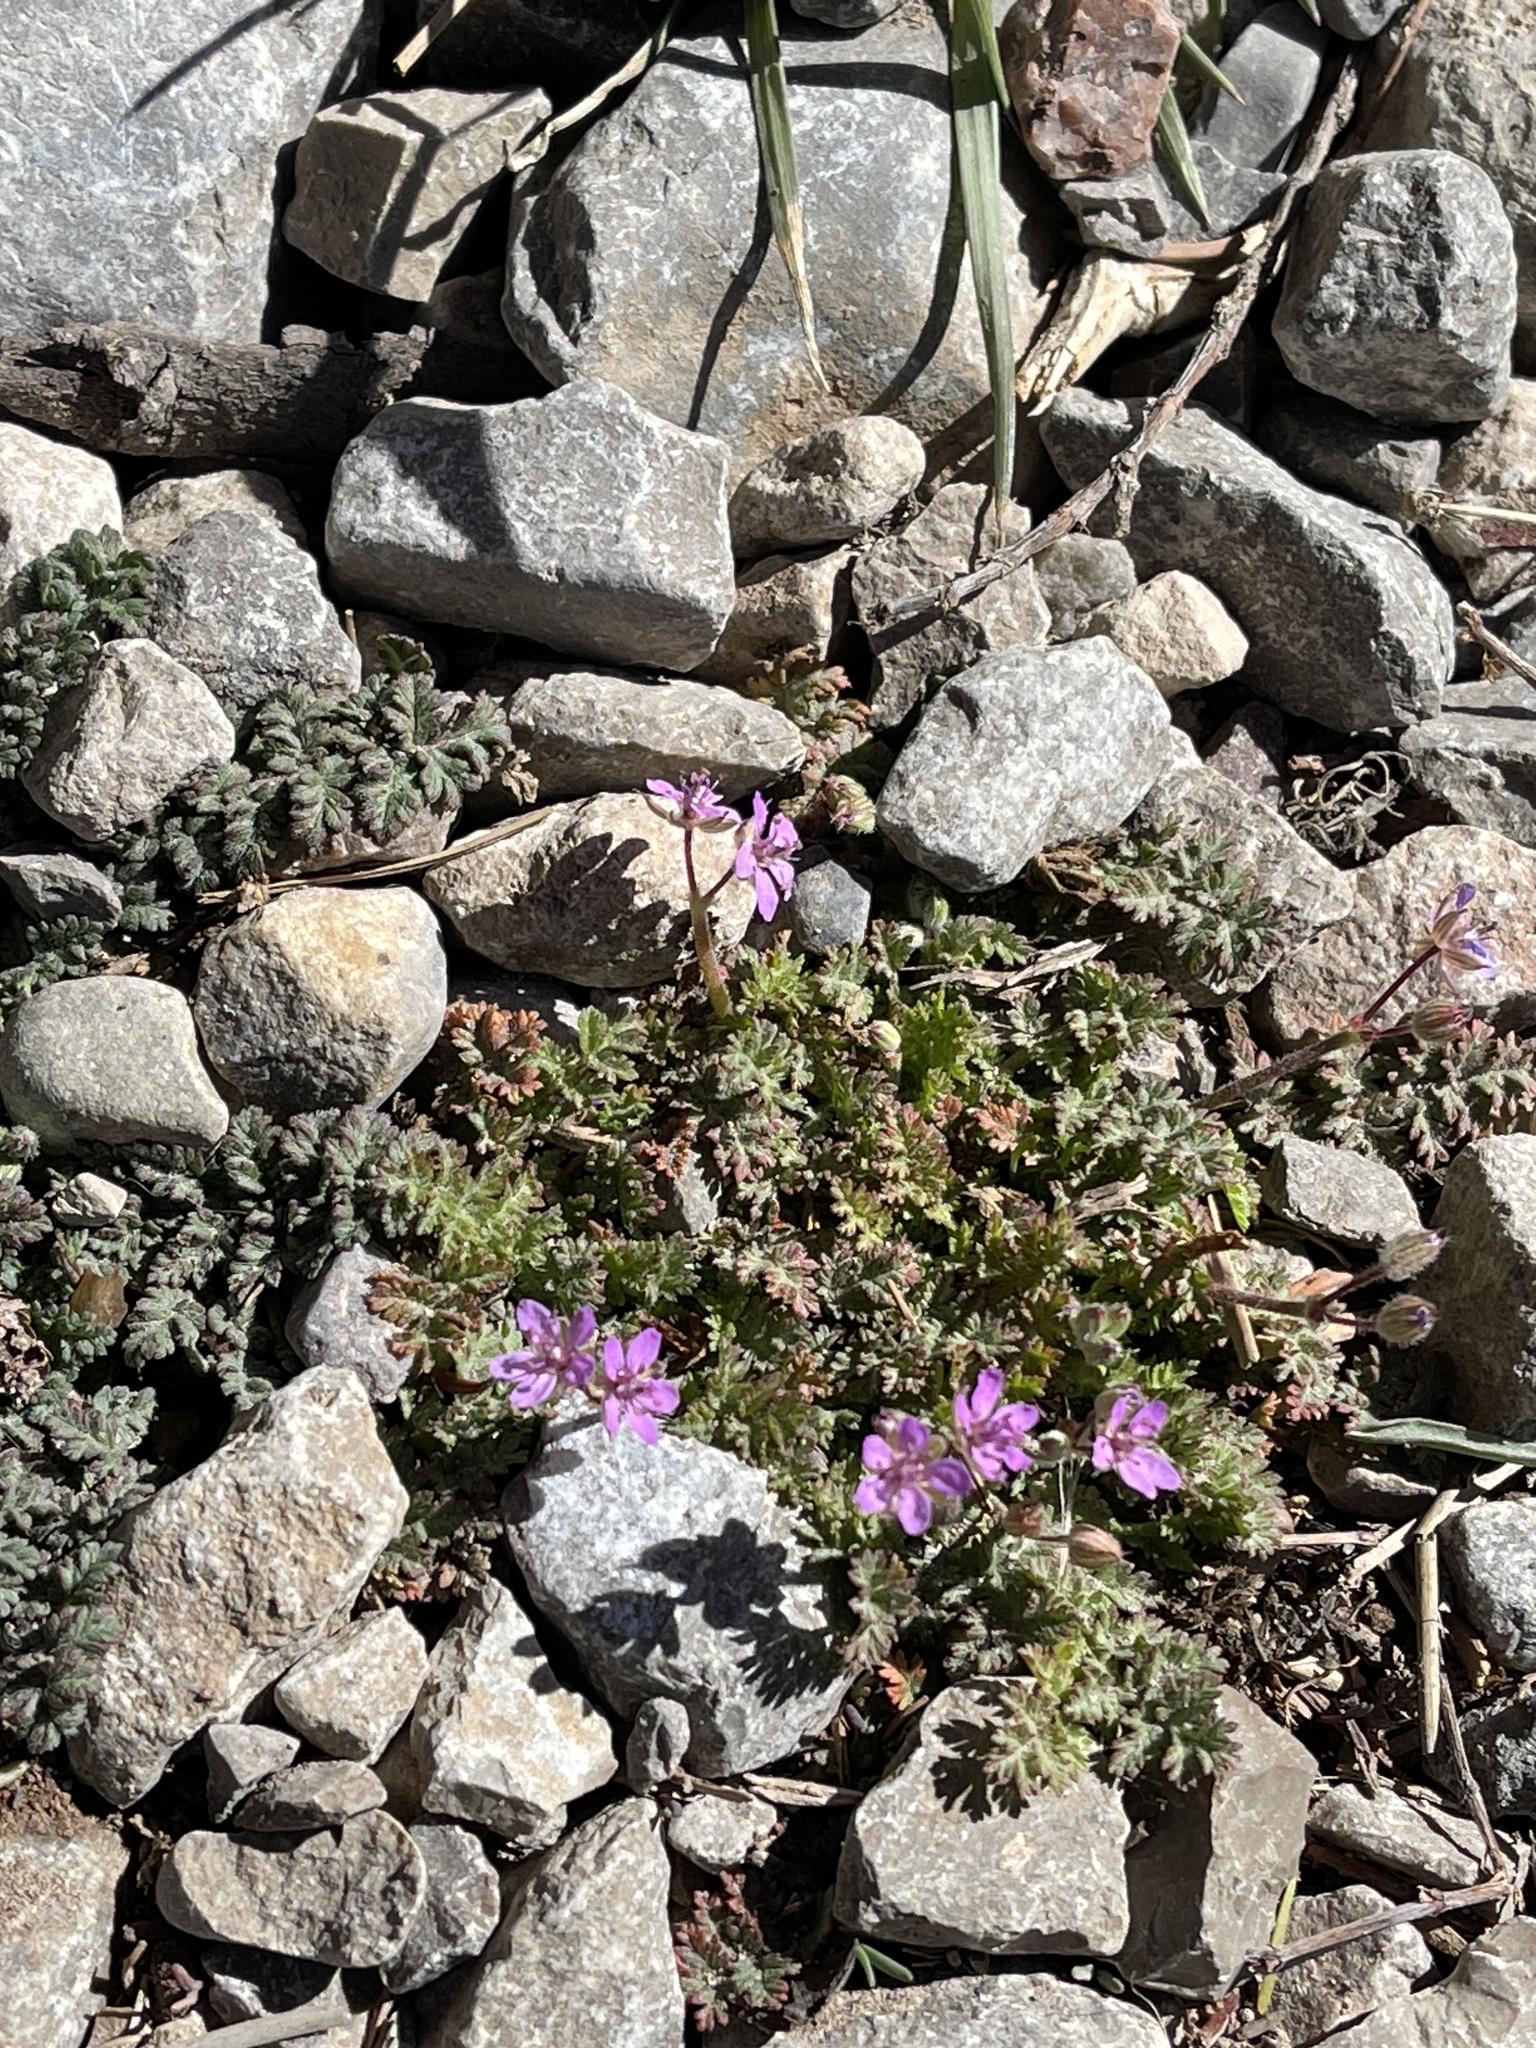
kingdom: Plantae
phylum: Tracheophyta
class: Magnoliopsida
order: Geraniales
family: Geraniaceae
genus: Erodium
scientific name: Erodium cicutarium
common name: Common stork's-bill
